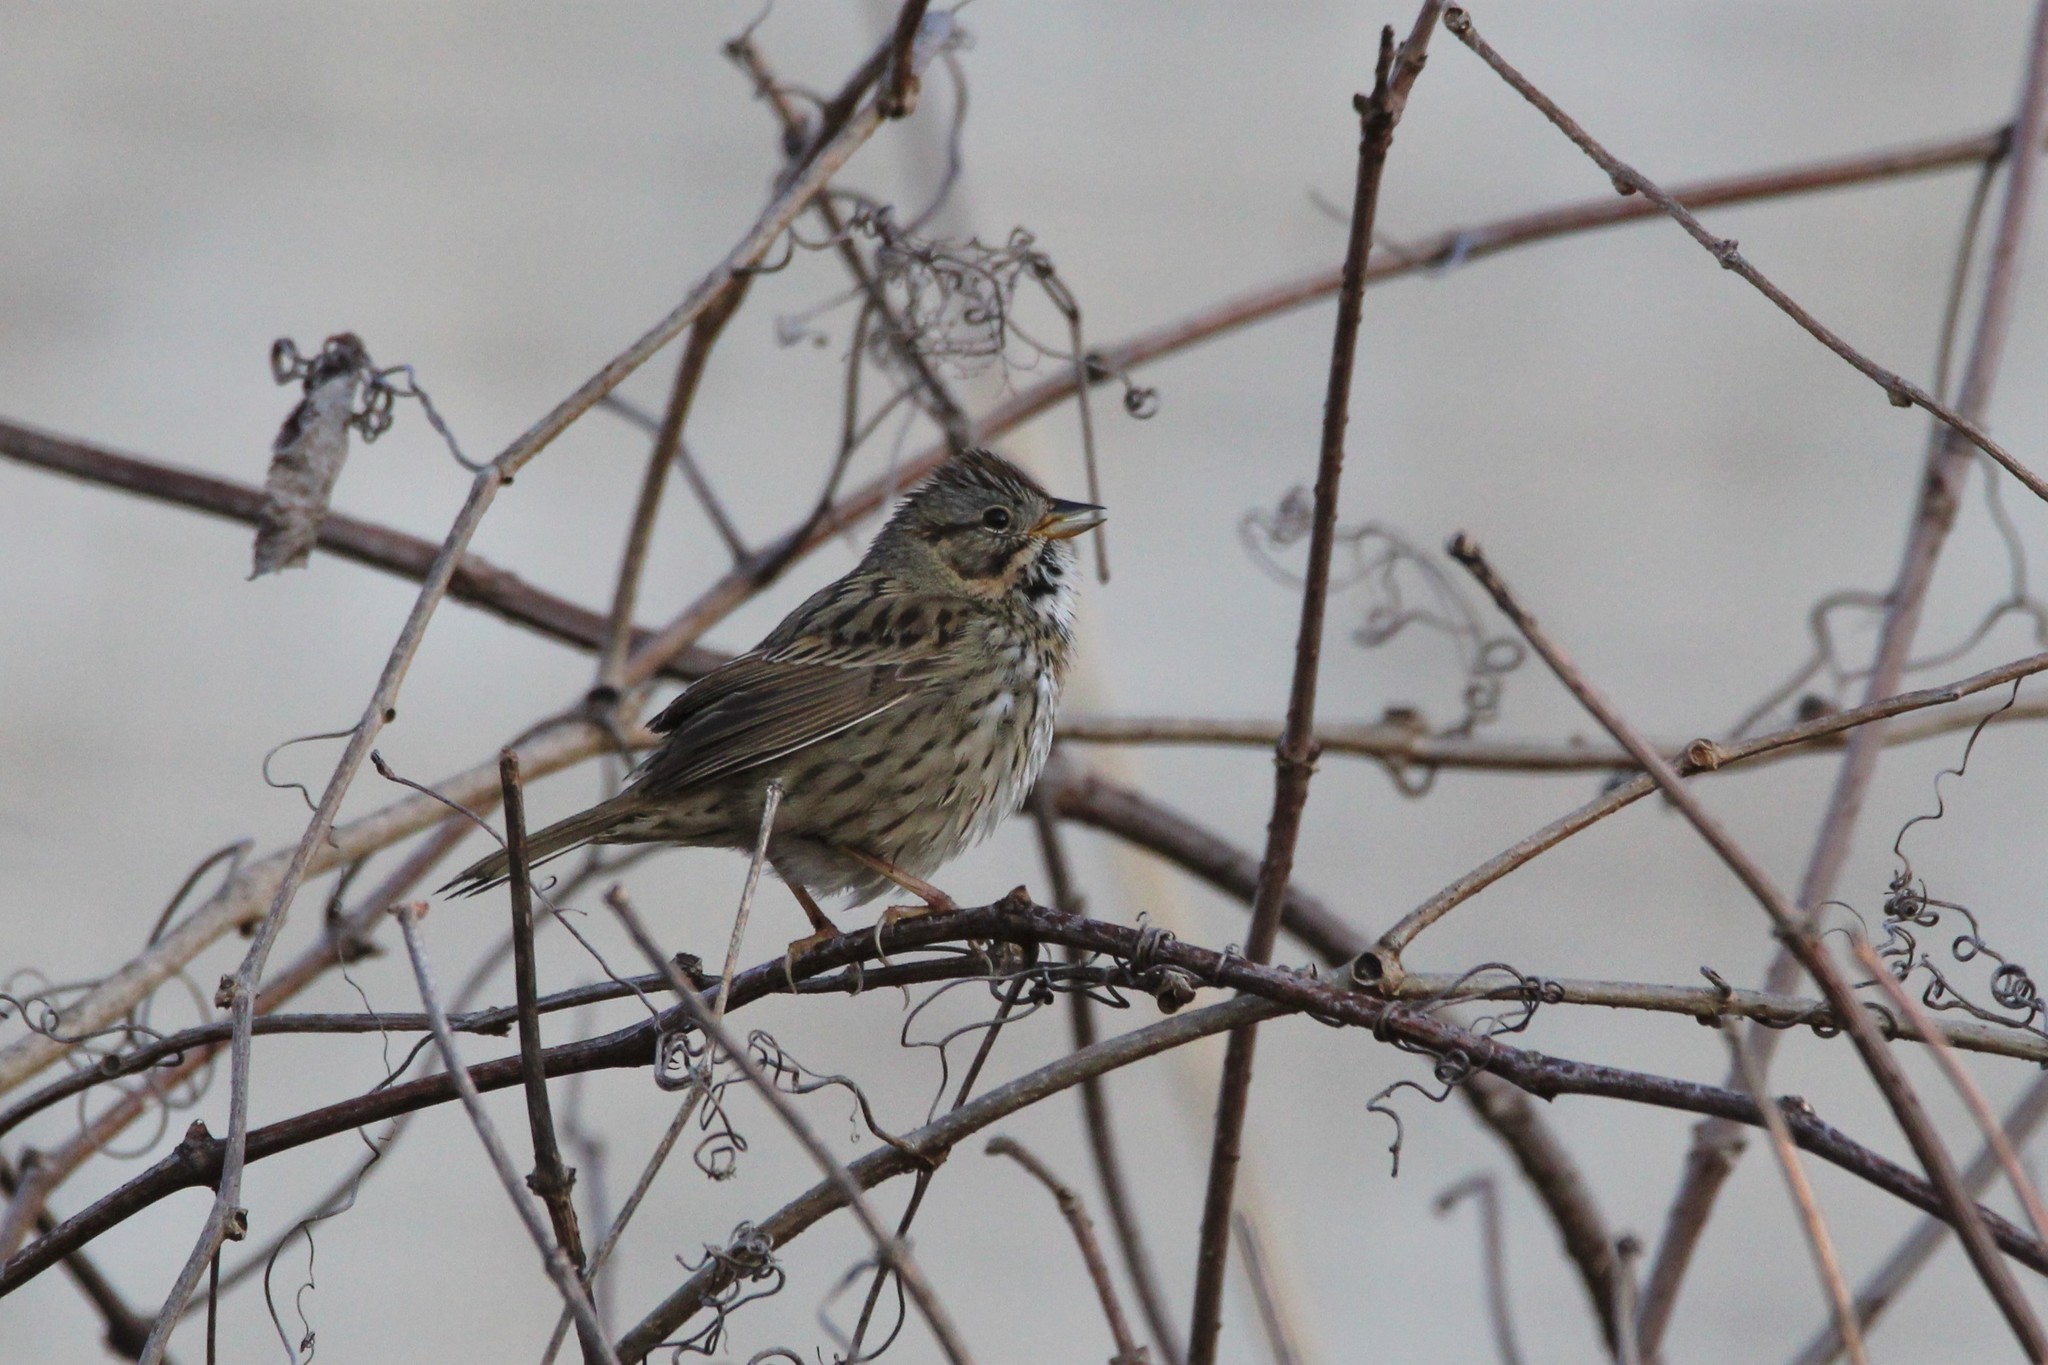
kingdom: Animalia
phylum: Chordata
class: Aves
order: Passeriformes
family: Passerellidae
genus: Melospiza
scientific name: Melospiza lincolnii
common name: Lincoln's sparrow
